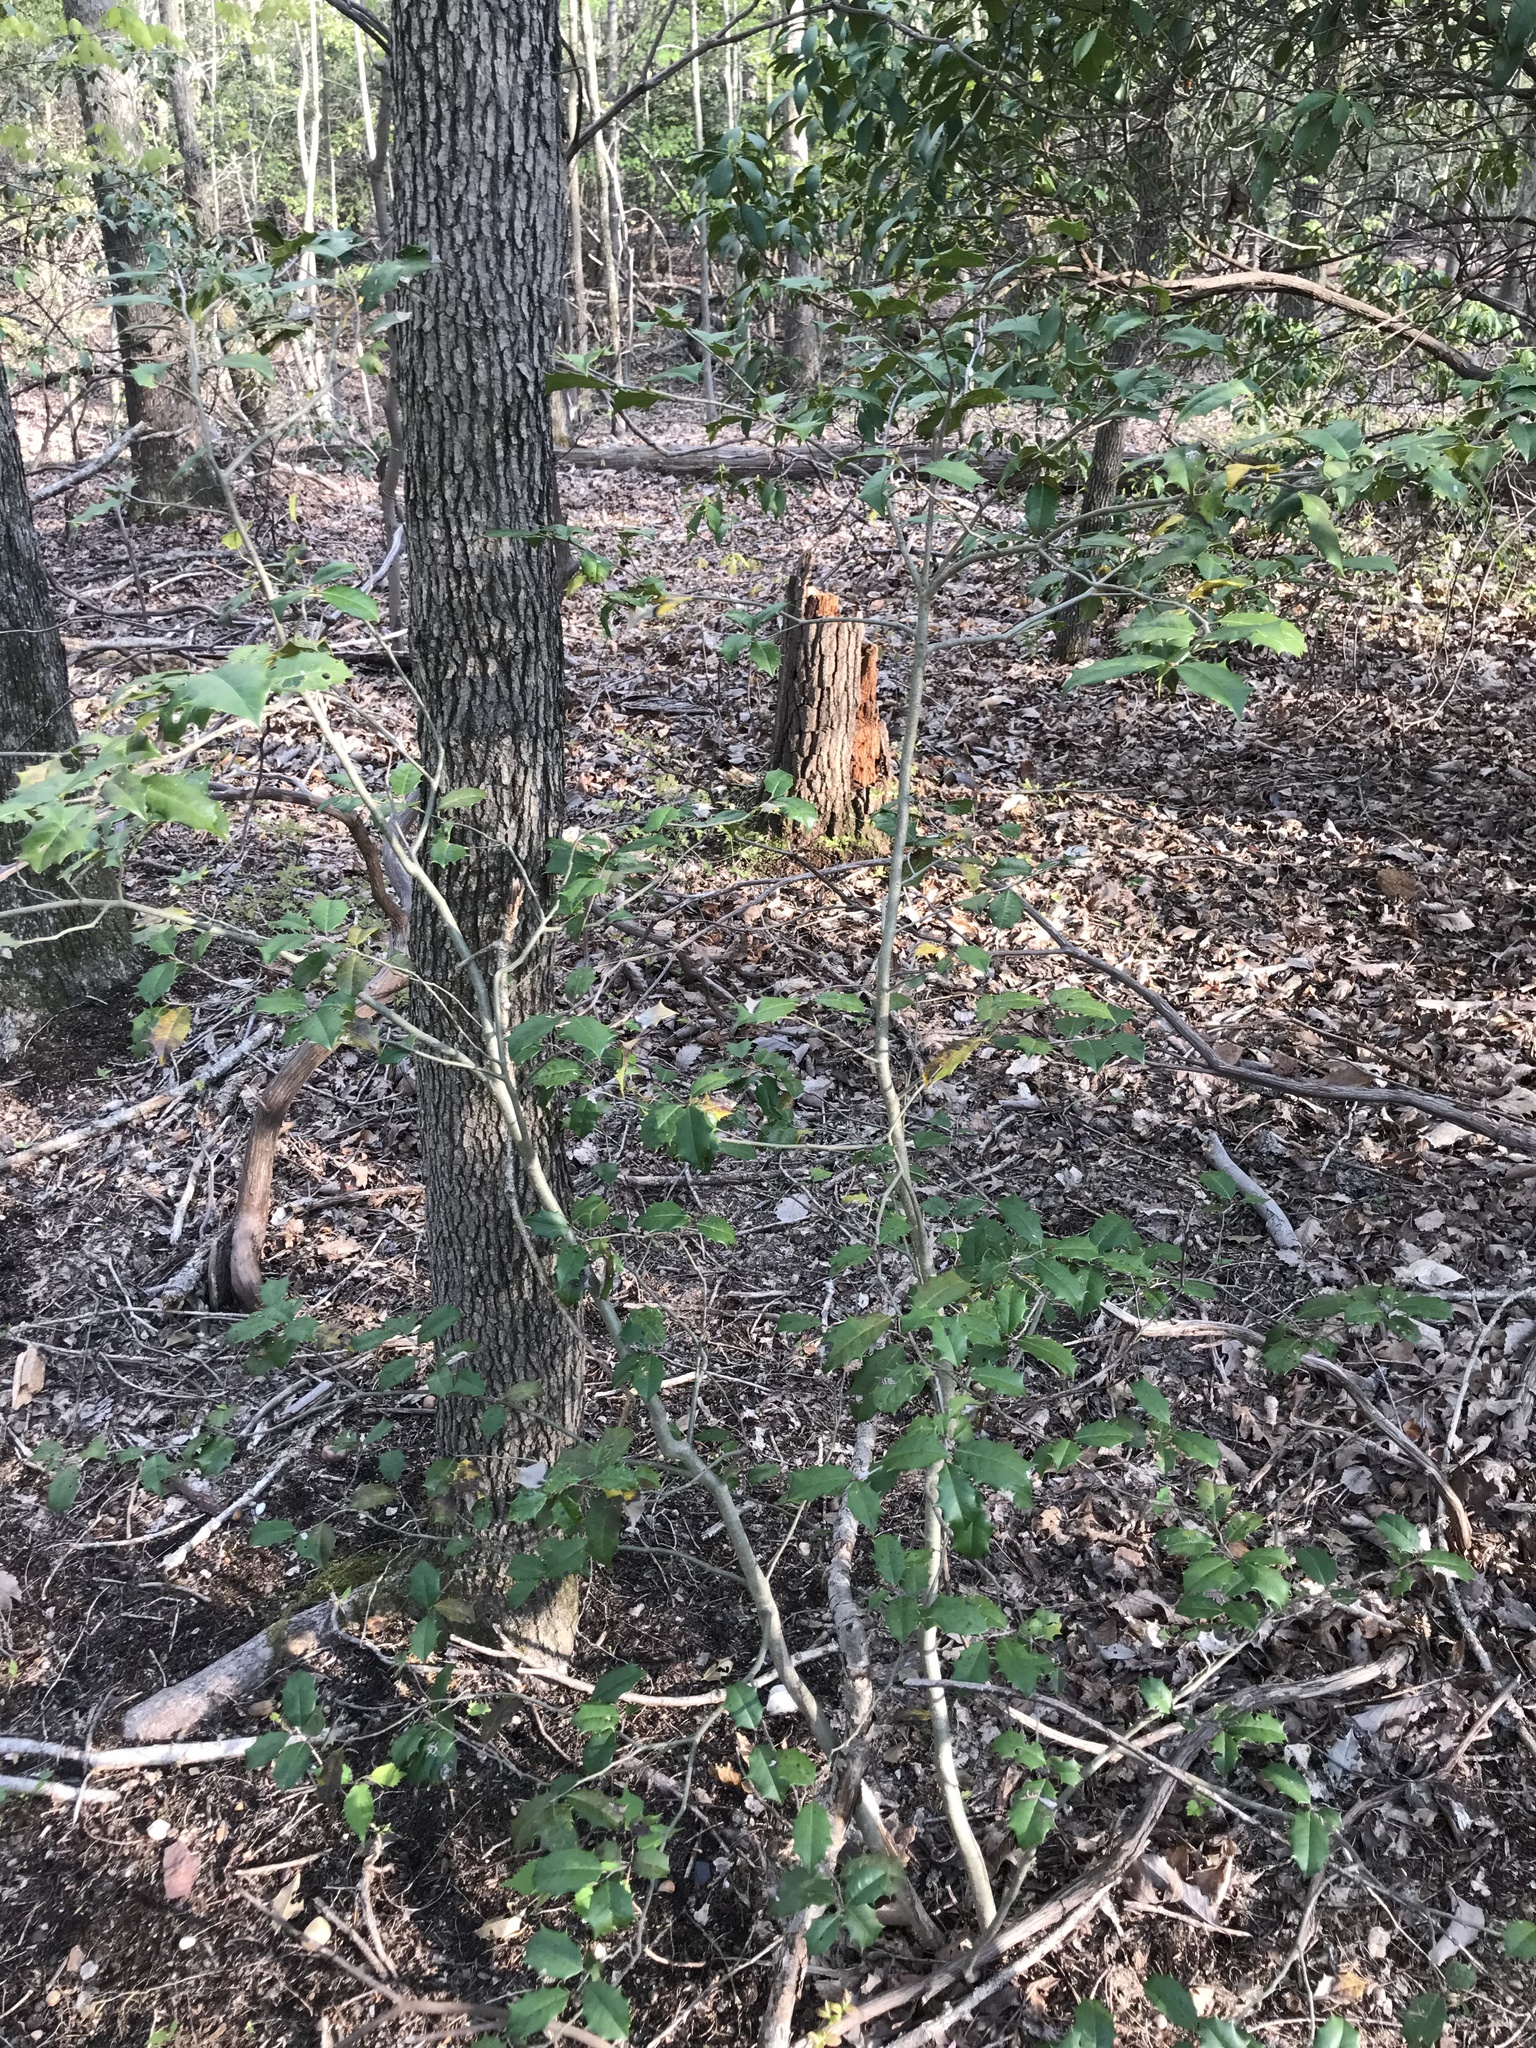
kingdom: Plantae
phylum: Tracheophyta
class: Magnoliopsida
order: Aquifoliales
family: Aquifoliaceae
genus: Ilex
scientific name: Ilex opaca
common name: American holly
